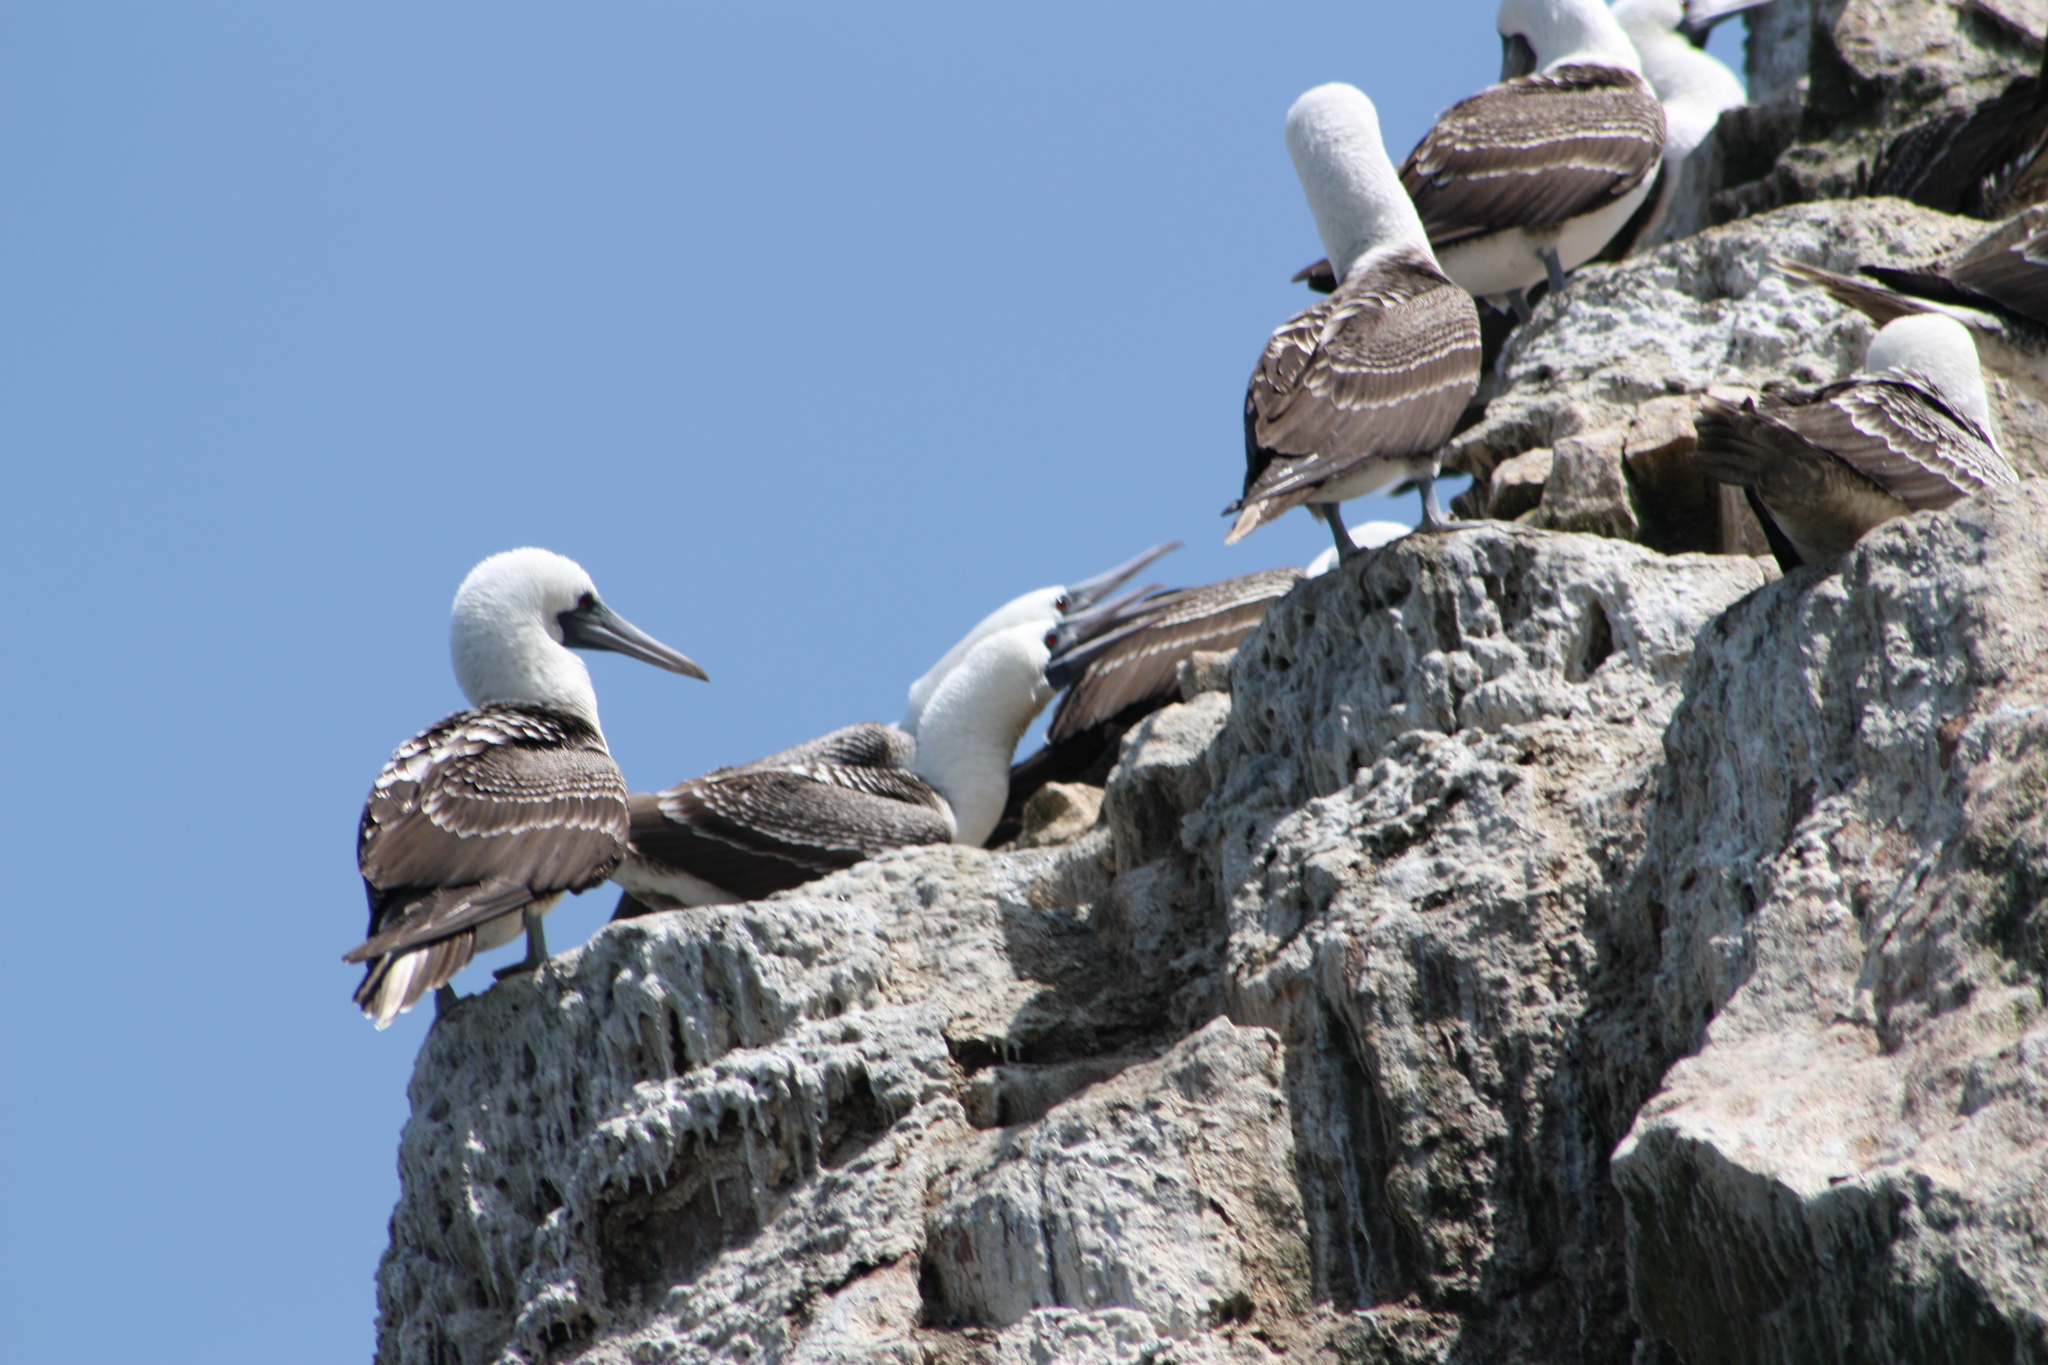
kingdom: Animalia
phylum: Chordata
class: Aves
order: Suliformes
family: Sulidae
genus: Sula
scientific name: Sula variegata
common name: Peruvian booby
